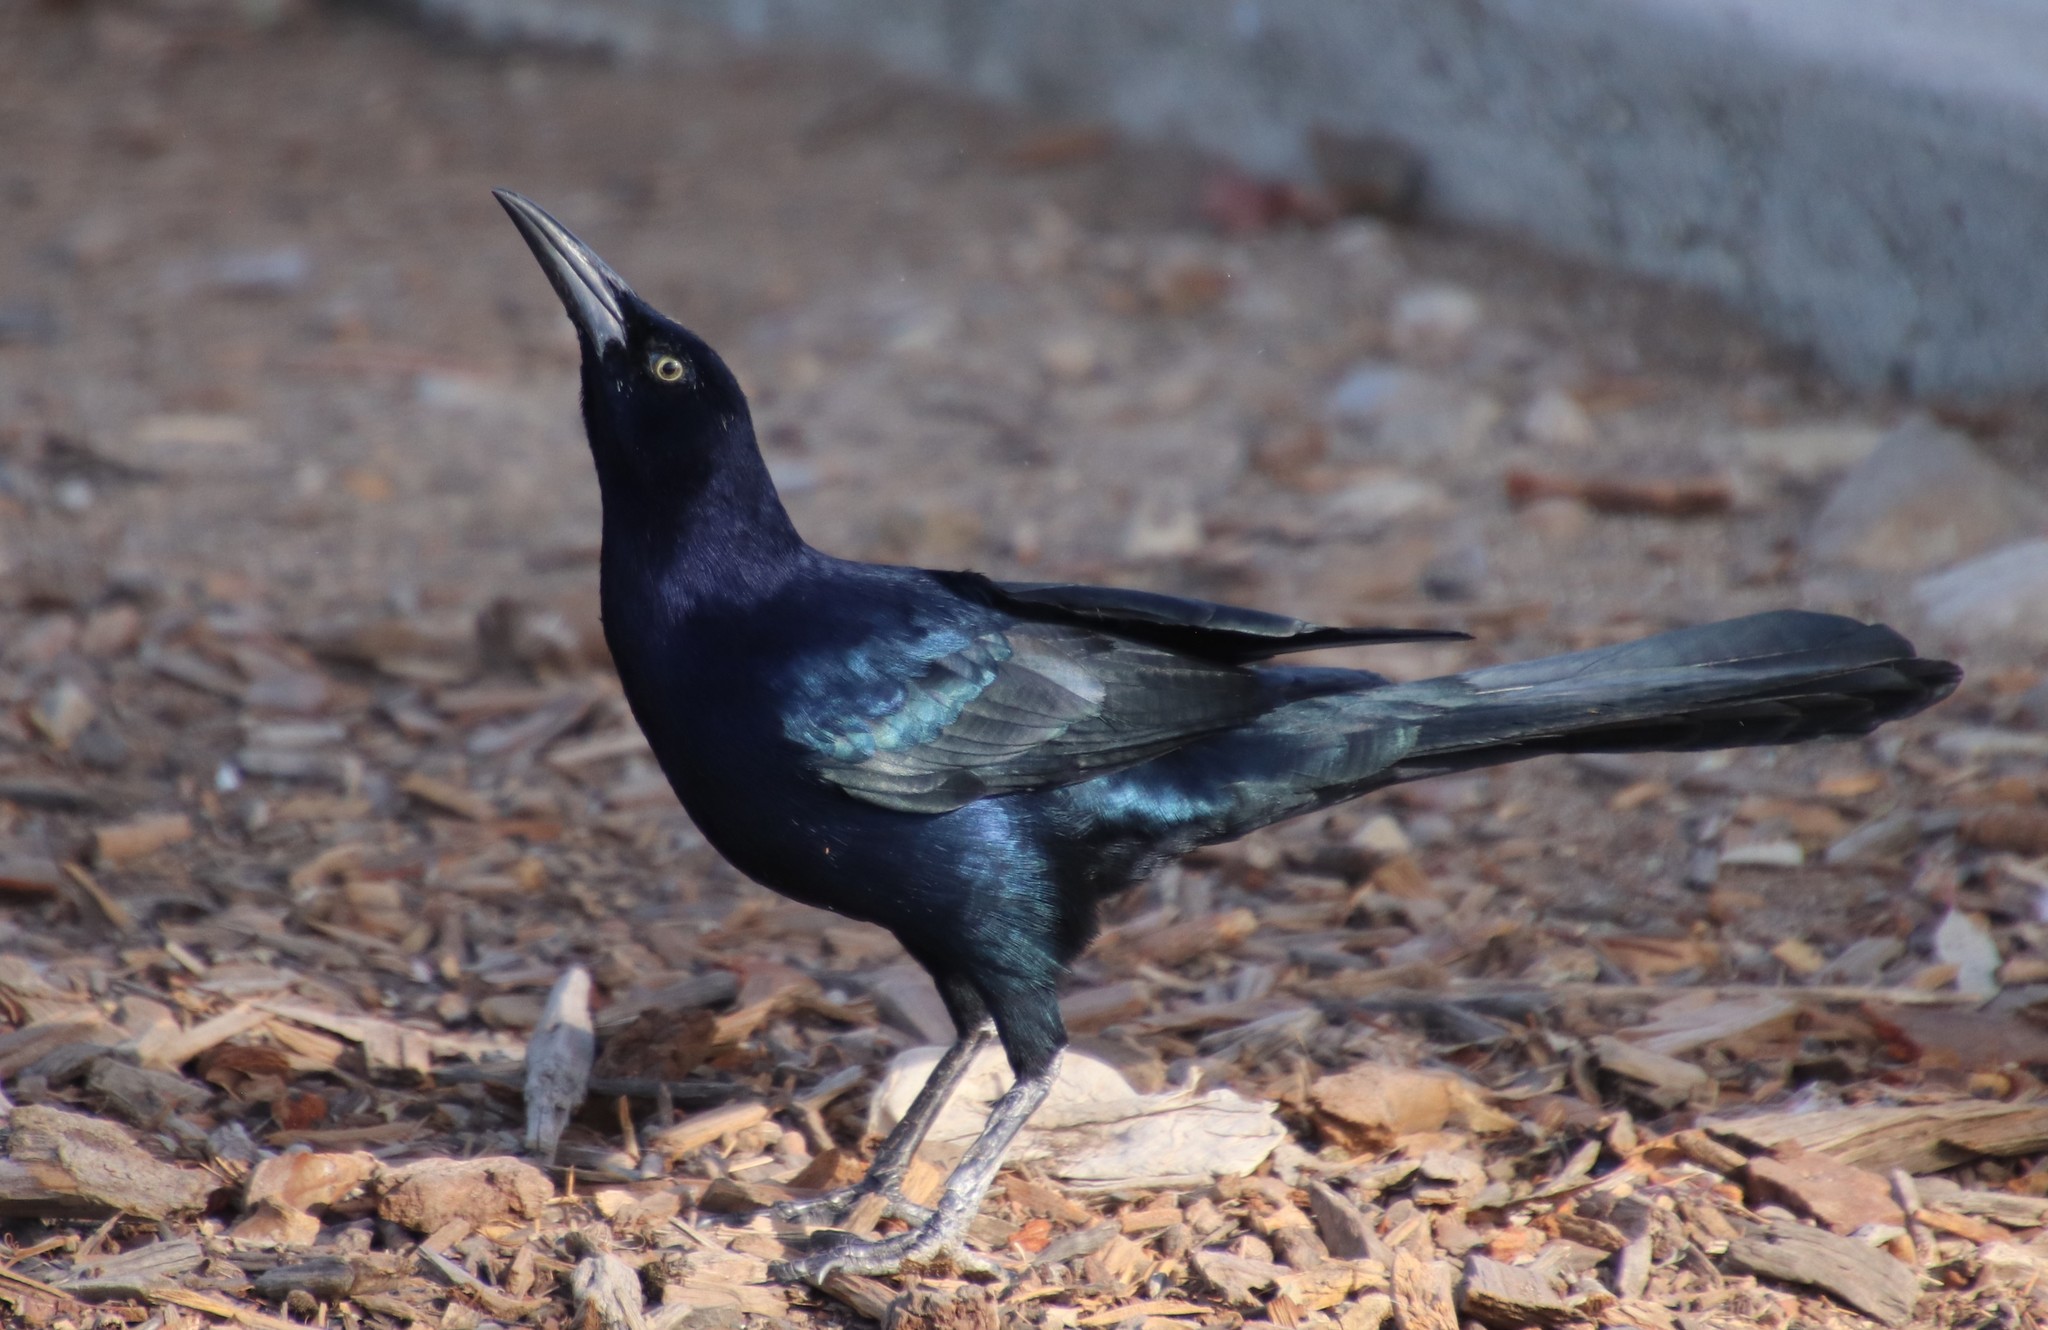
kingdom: Animalia
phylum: Chordata
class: Aves
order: Passeriformes
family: Icteridae
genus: Quiscalus
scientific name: Quiscalus mexicanus
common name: Great-tailed grackle
